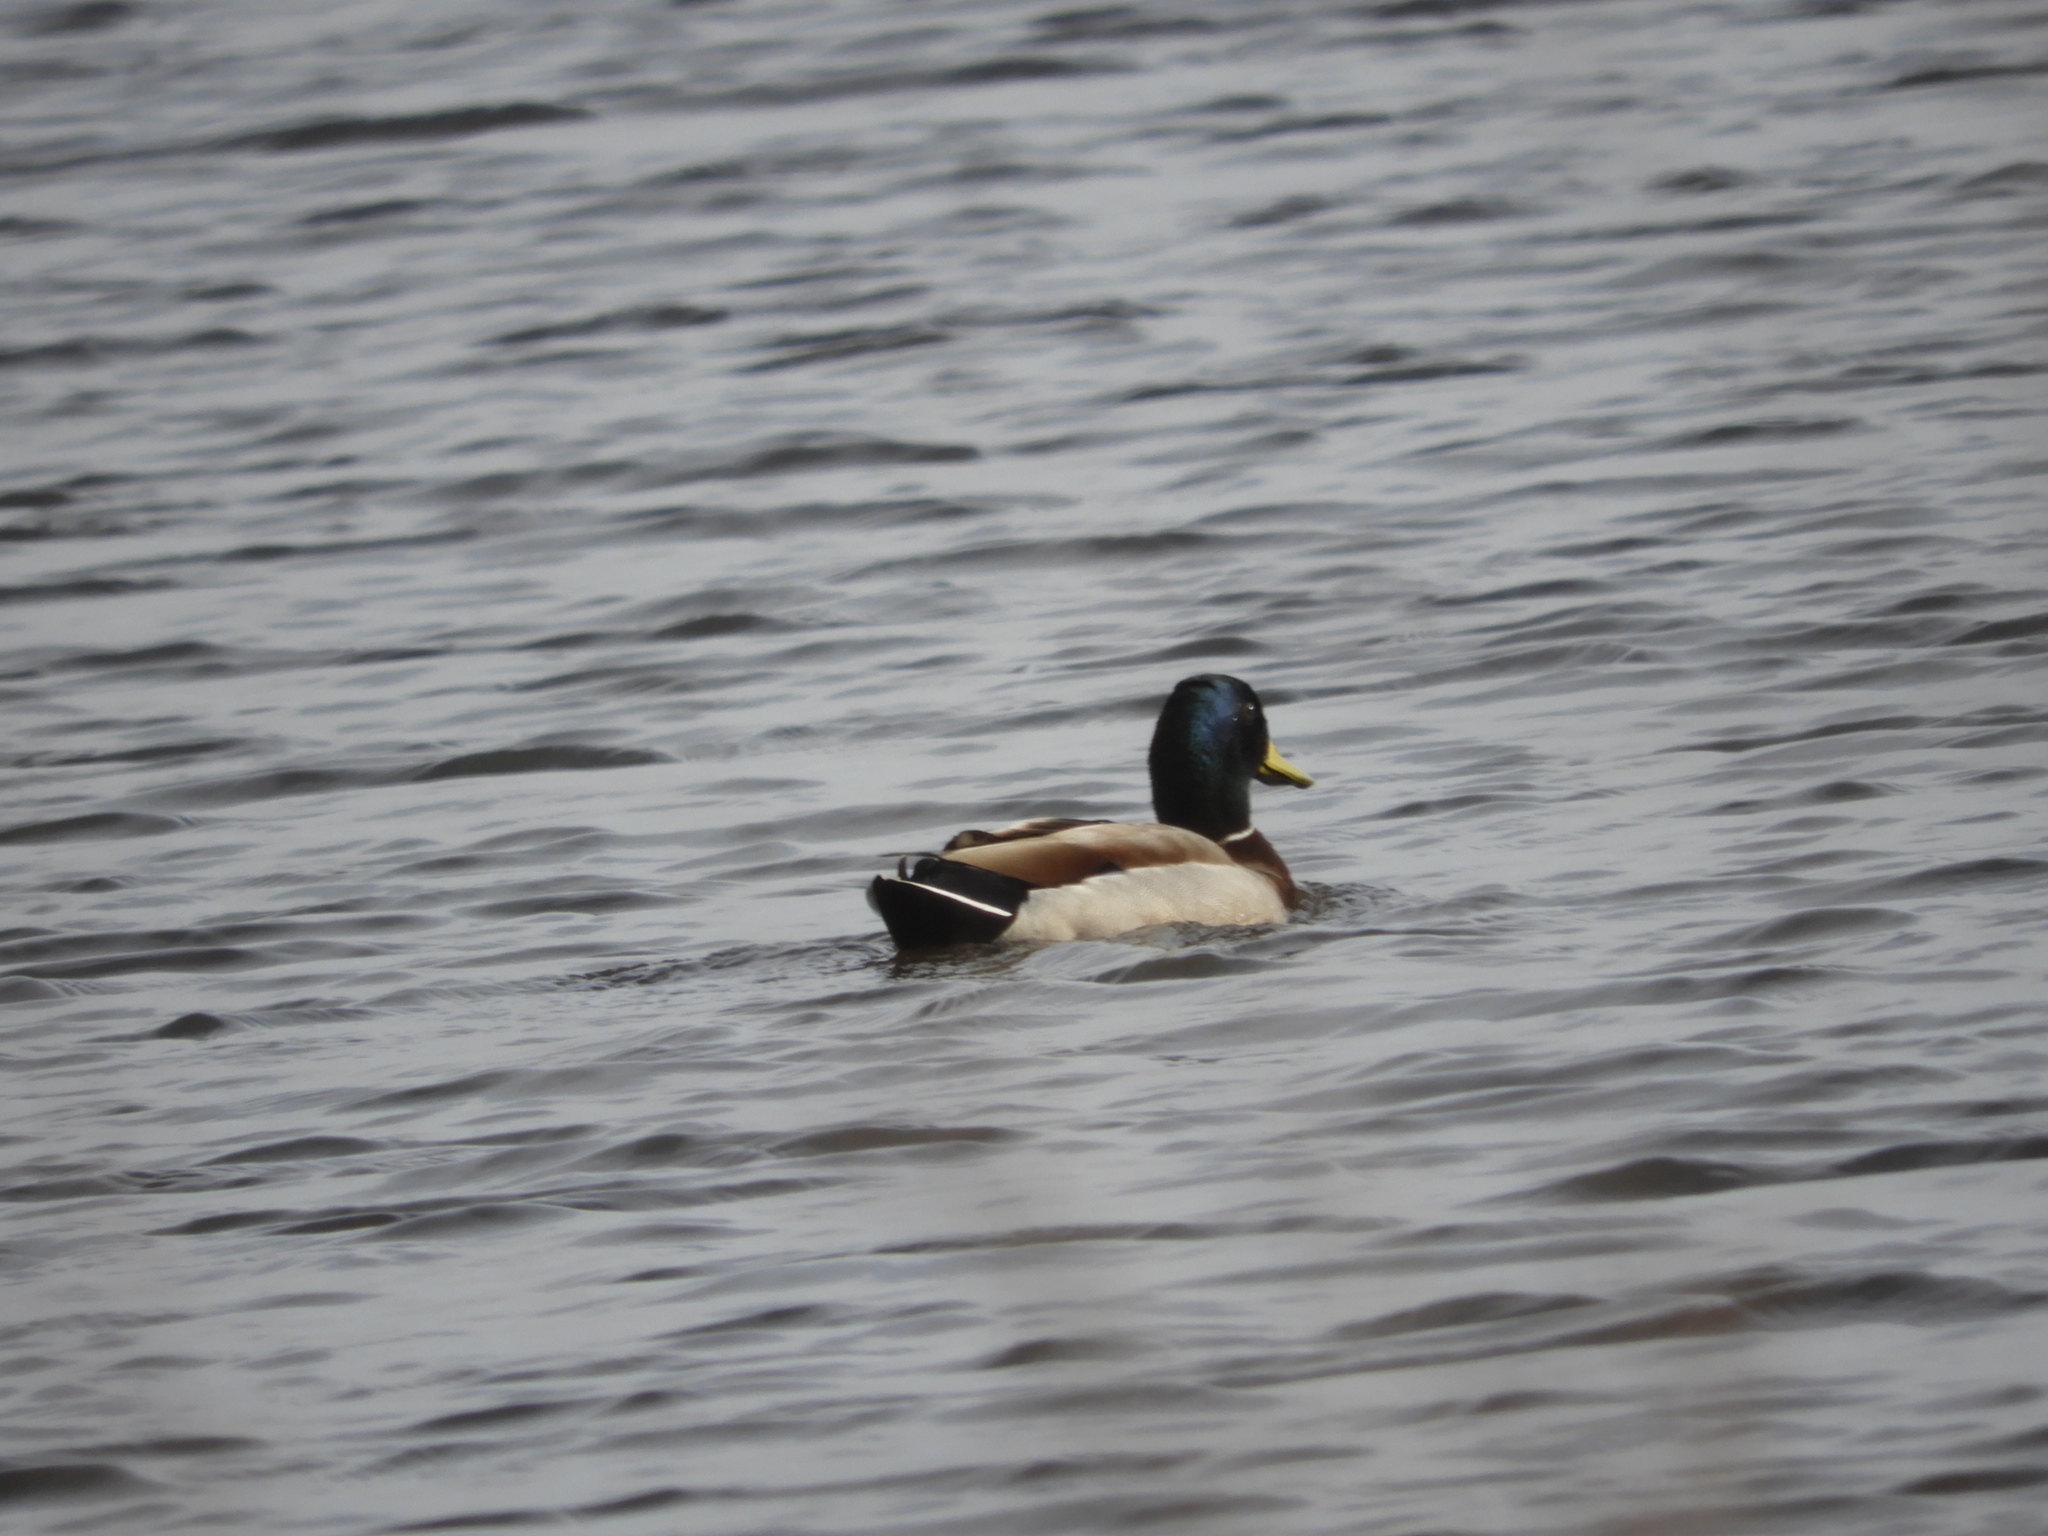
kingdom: Animalia
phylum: Chordata
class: Aves
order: Anseriformes
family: Anatidae
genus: Anas
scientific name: Anas platyrhynchos
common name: Mallard
